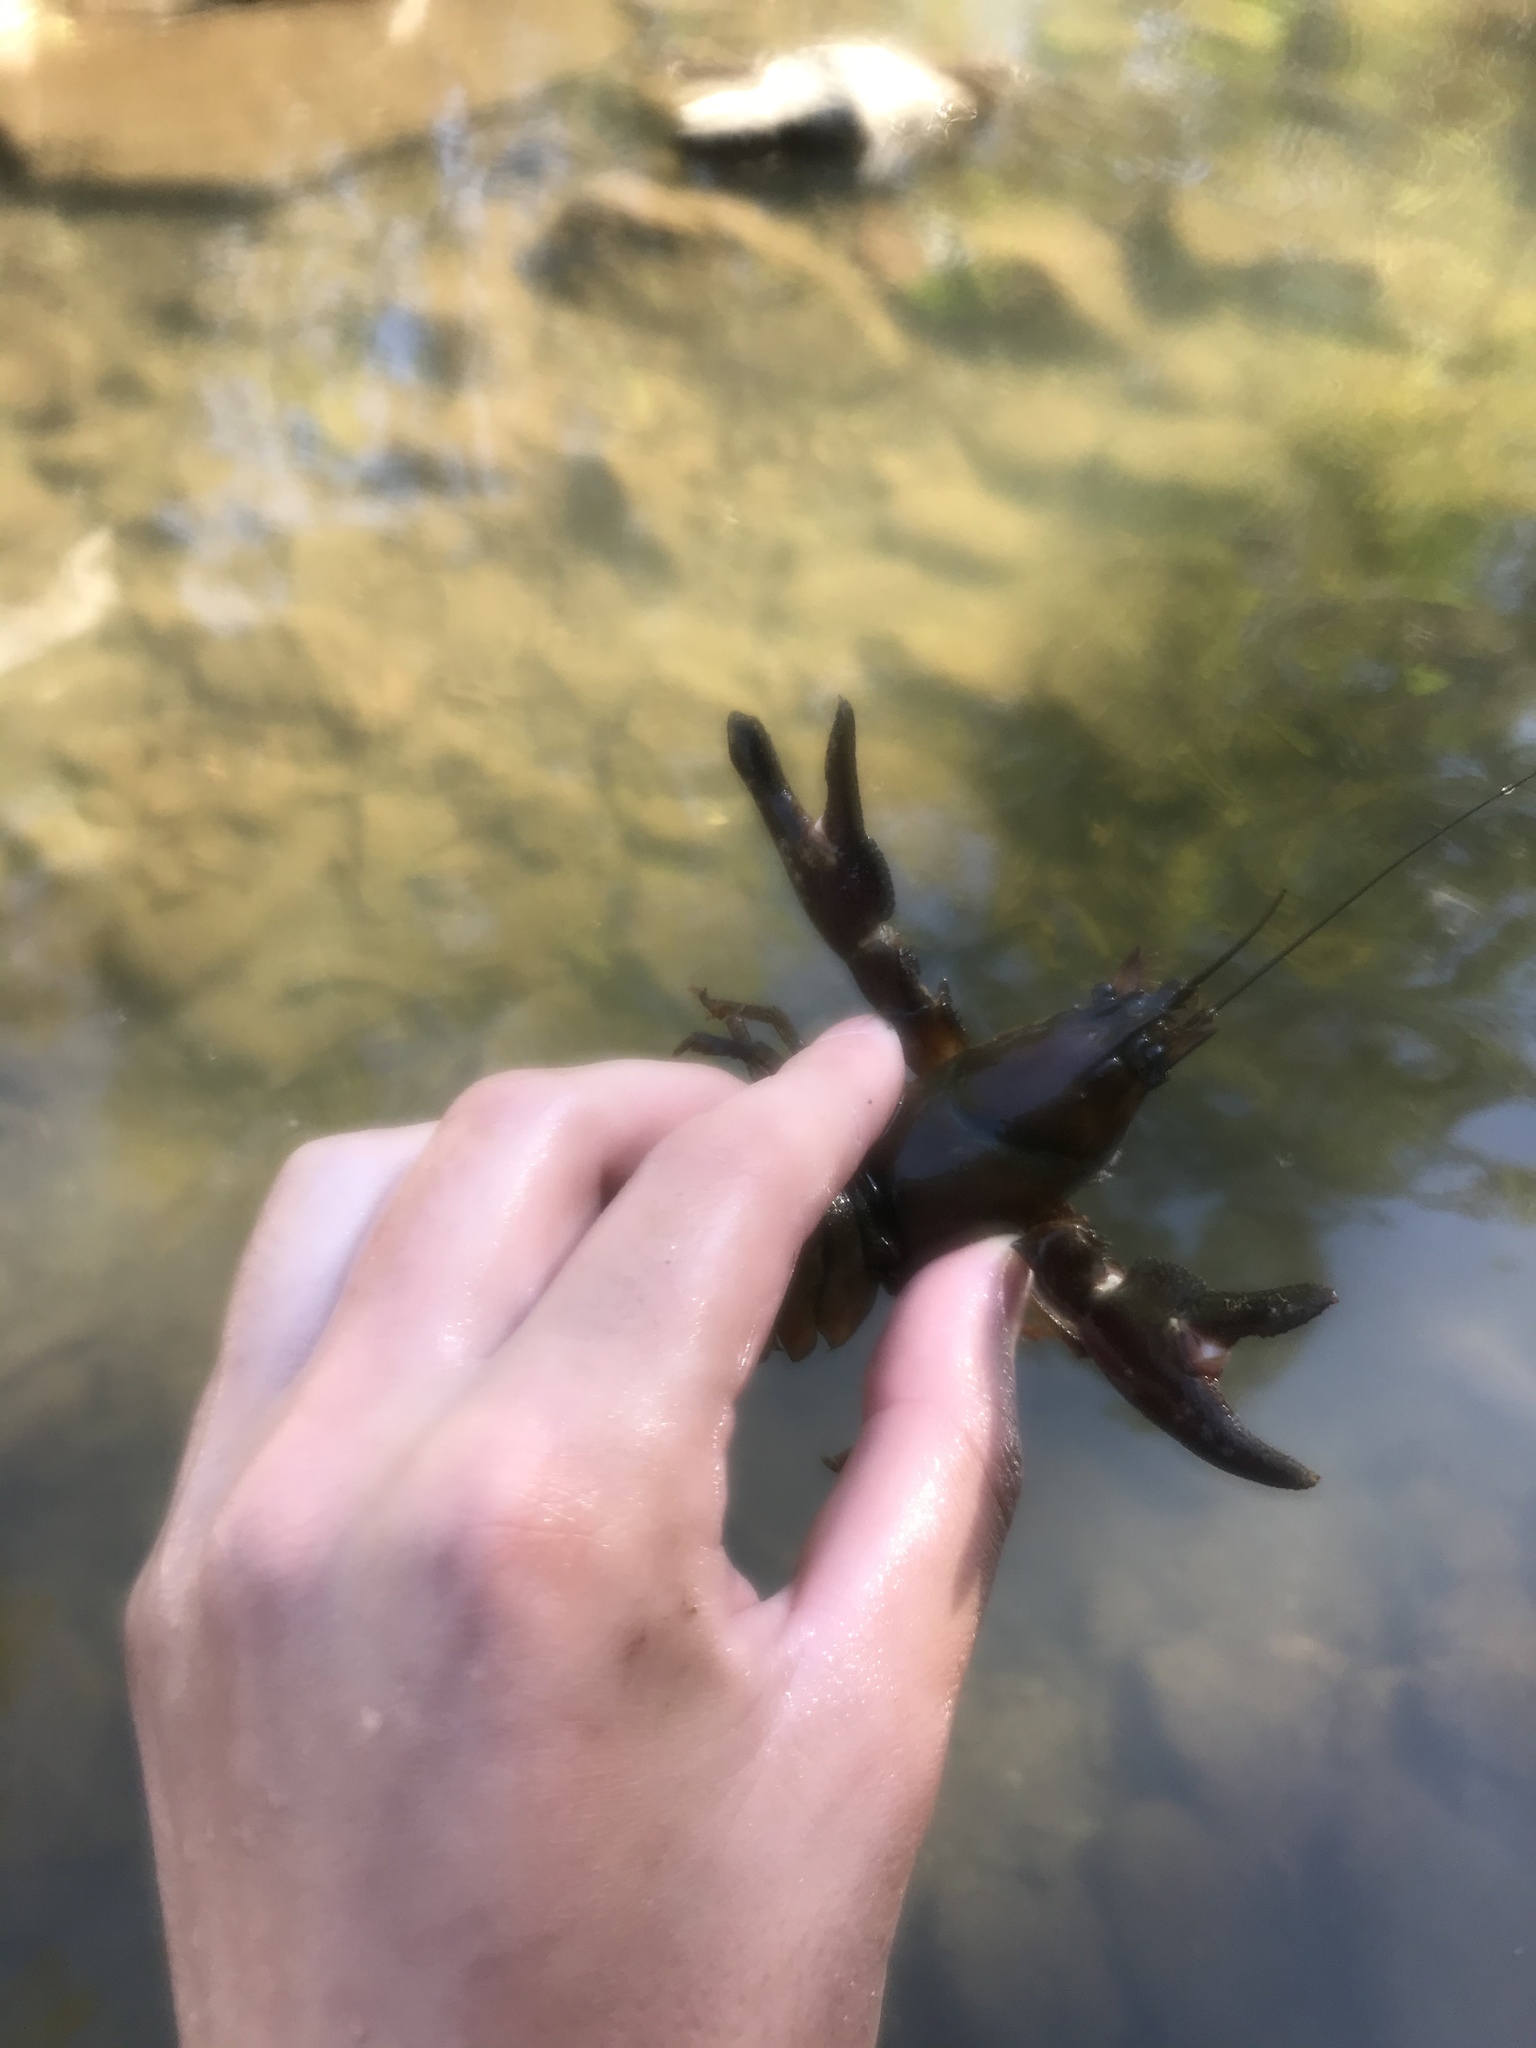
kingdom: Animalia
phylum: Arthropoda
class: Malacostraca
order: Decapoda
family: Astacidae
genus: Pacifastacus
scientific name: Pacifastacus leniusculus
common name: Signal crayfish
